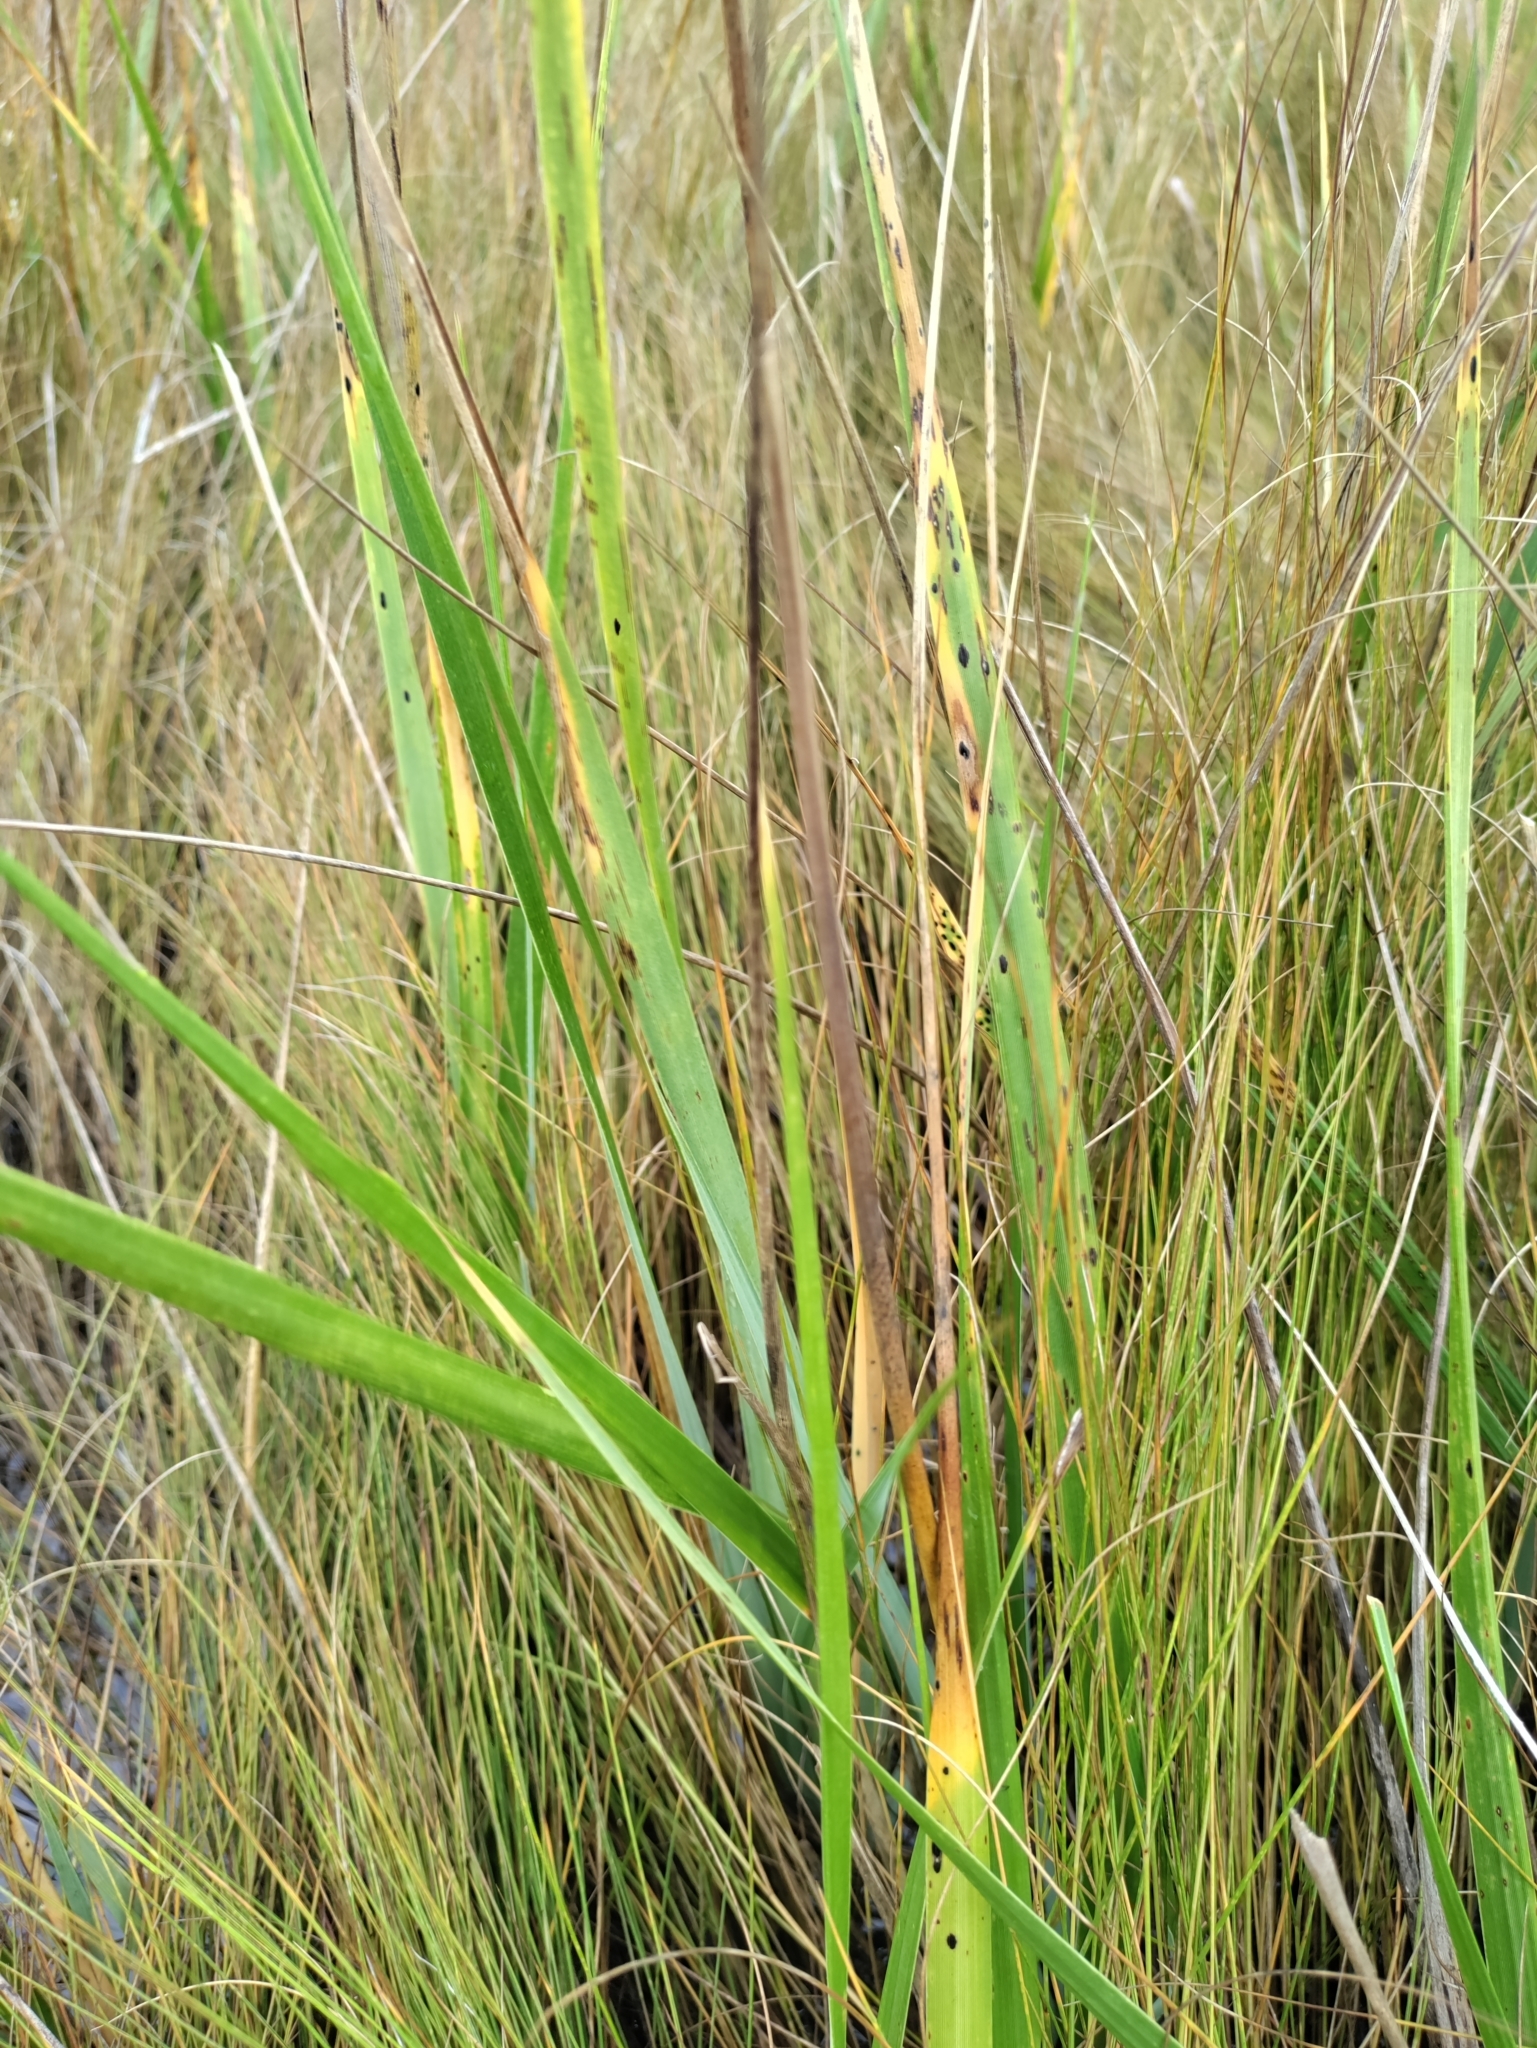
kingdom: Plantae
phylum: Tracheophyta
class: Liliopsida
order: Poales
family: Poaceae
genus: Sporobolus
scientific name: Sporobolus alterniflorus
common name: Atlantic cordgrass
